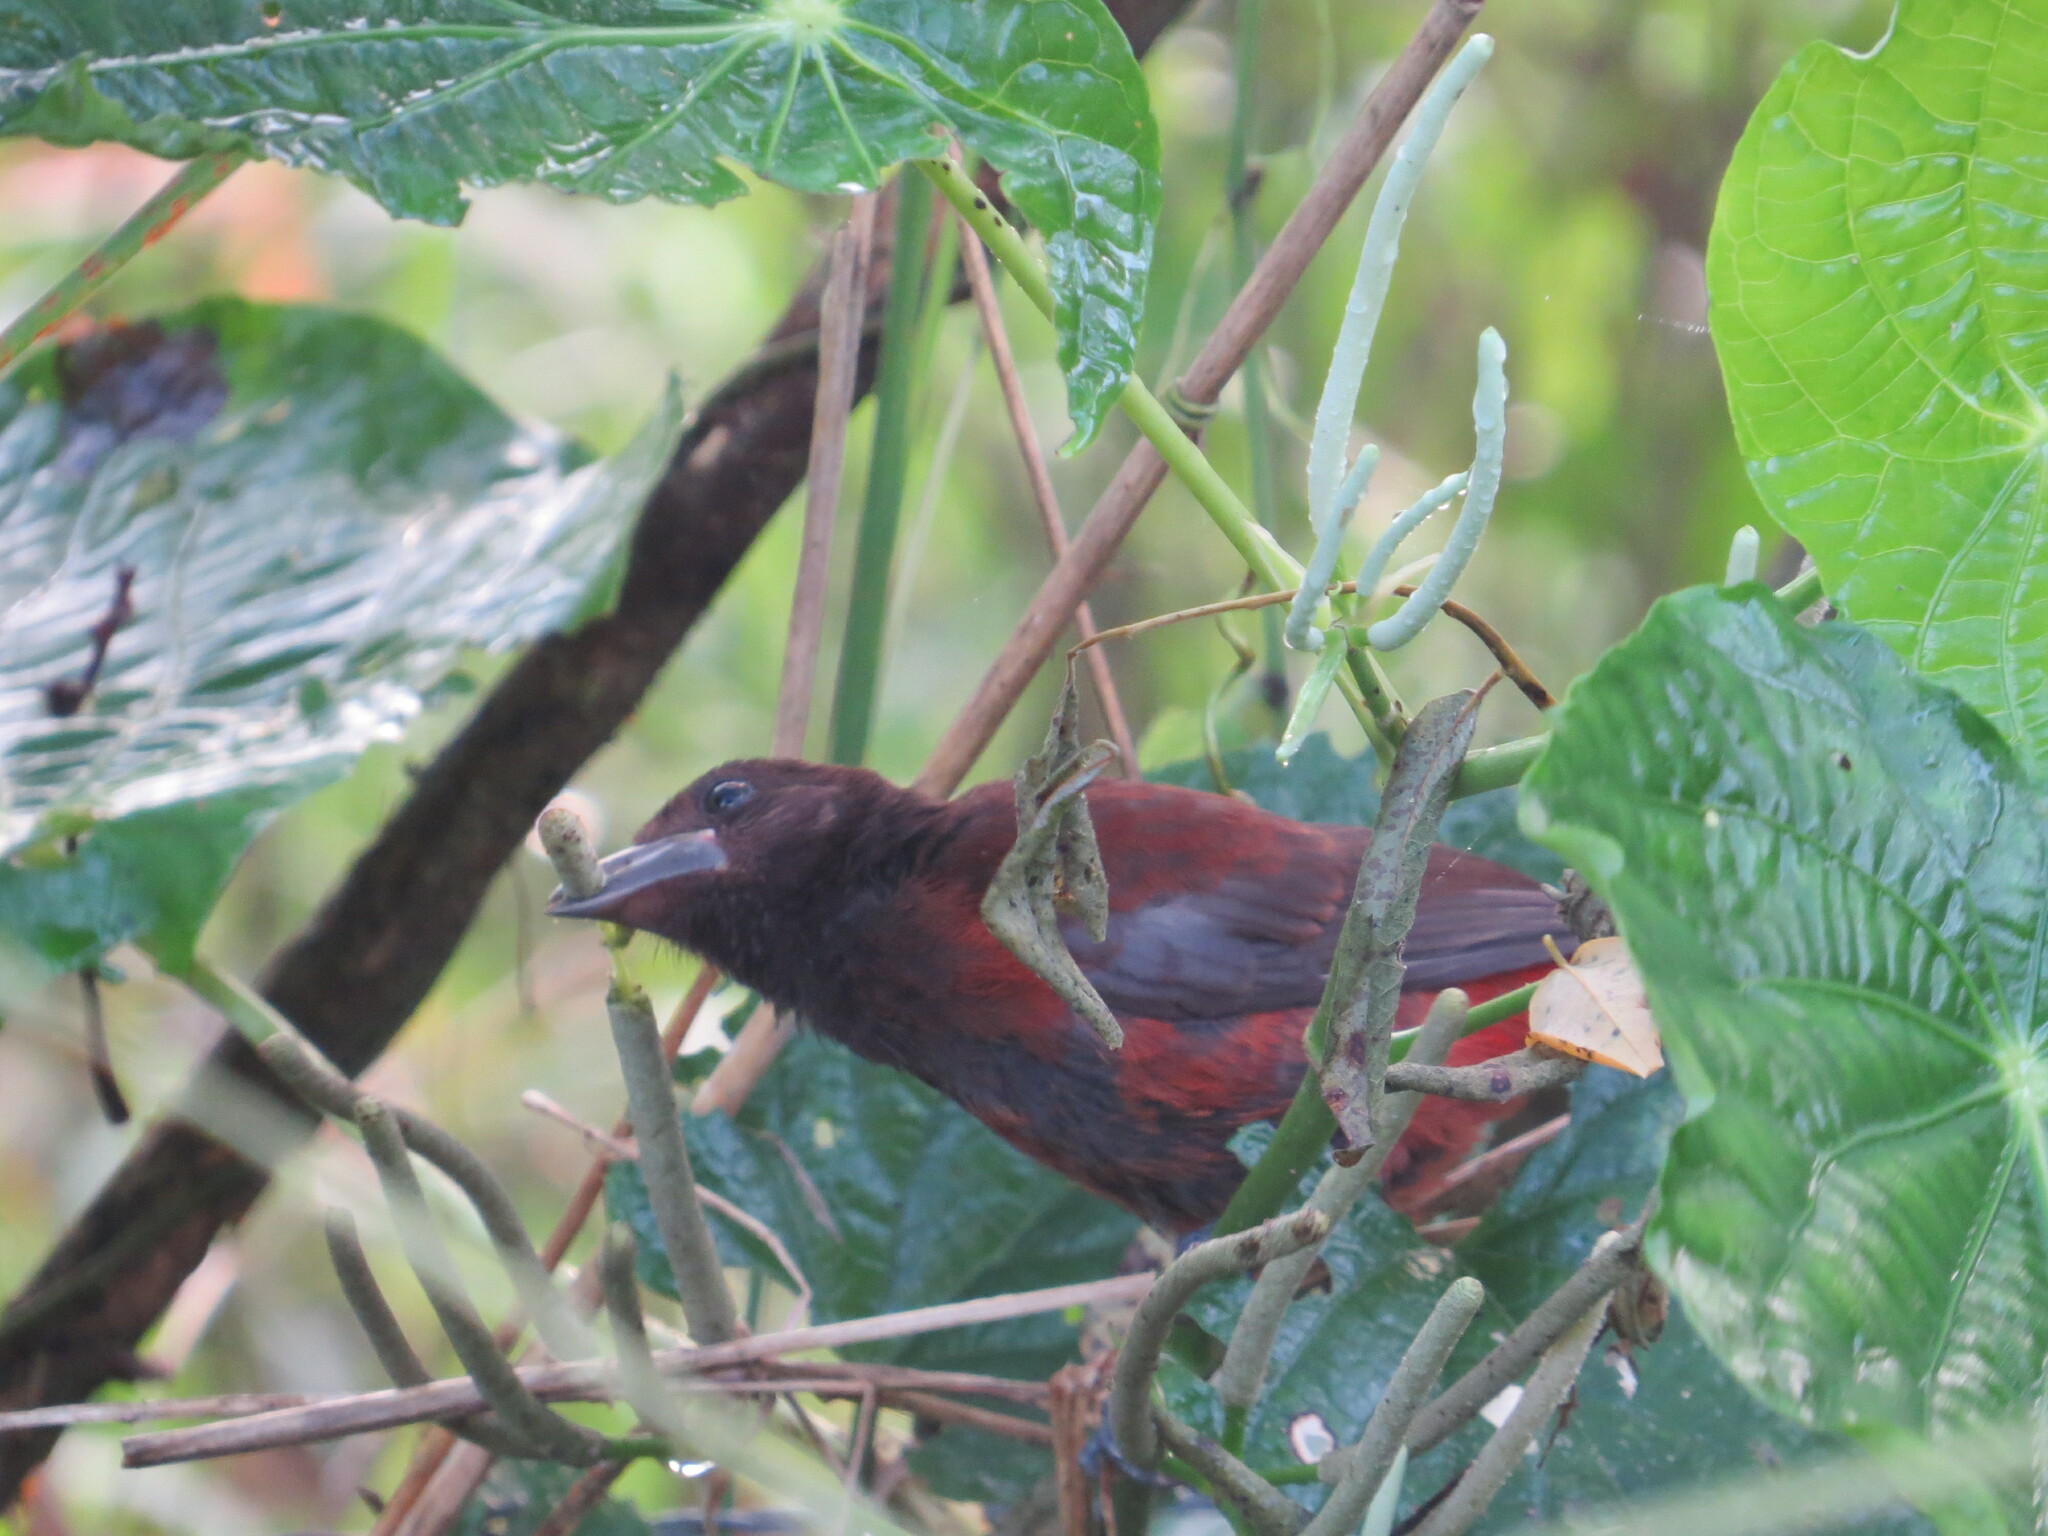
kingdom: Animalia
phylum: Chordata
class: Aves
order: Passeriformes
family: Thraupidae
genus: Ramphocelus
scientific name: Ramphocelus dimidiatus
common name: Crimson-backed tanager
